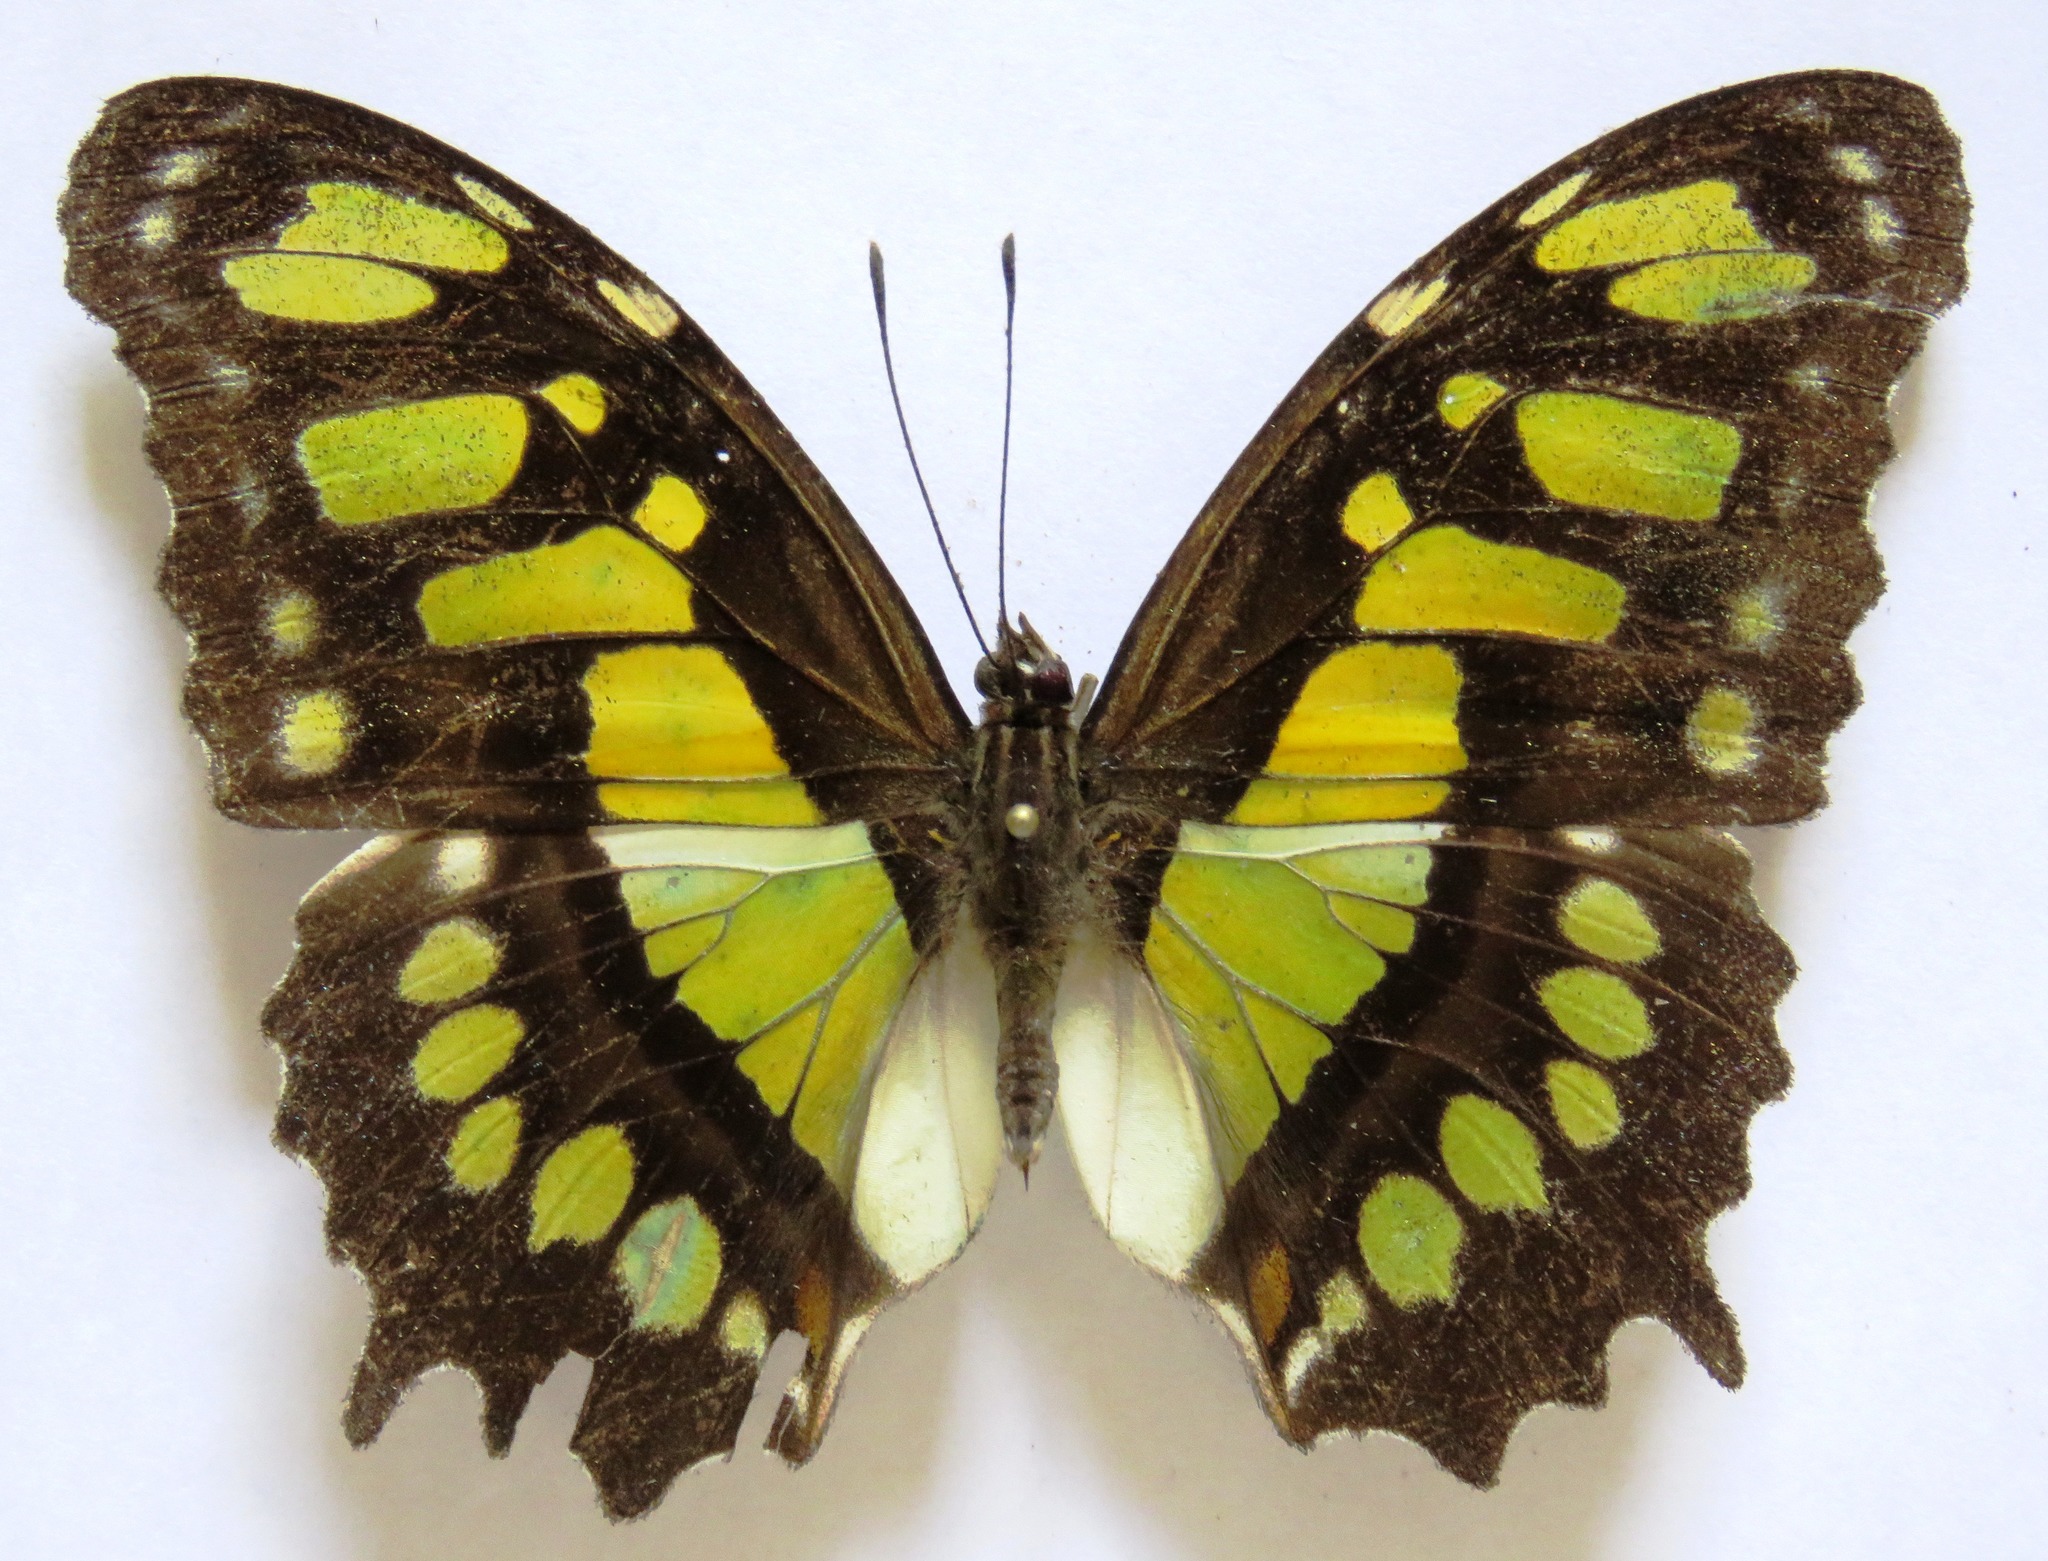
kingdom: Animalia
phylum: Arthropoda
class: Insecta
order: Lepidoptera
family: Nymphalidae
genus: Siproeta
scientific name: Siproeta stelenes
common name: Malachite
